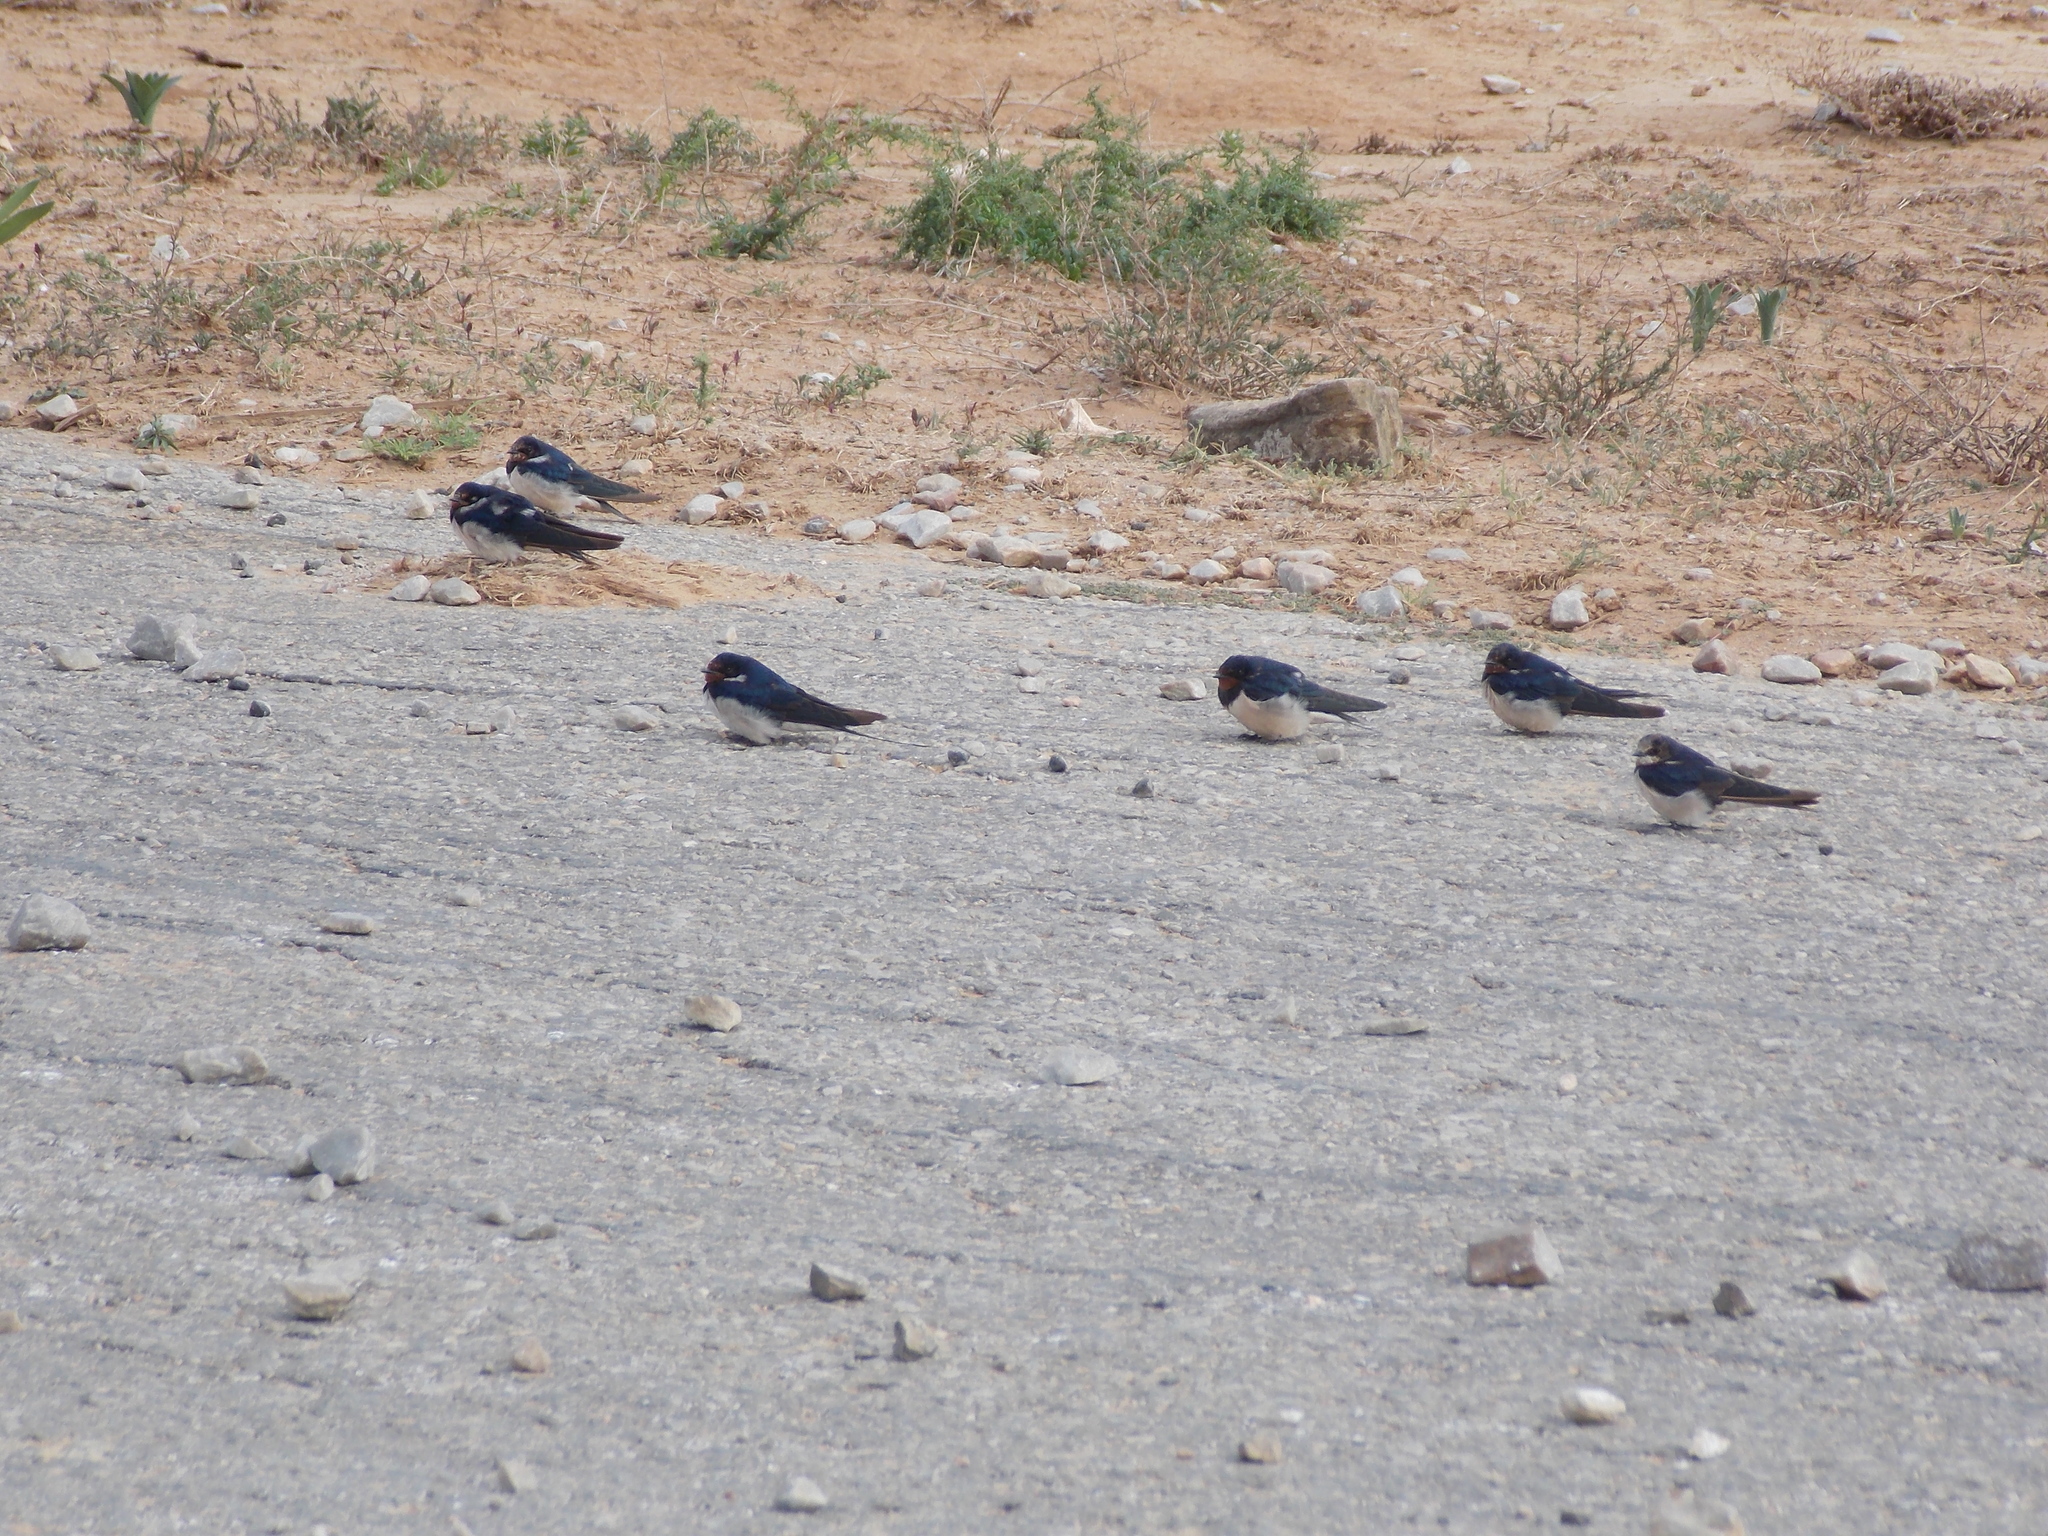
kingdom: Animalia
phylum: Chordata
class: Aves
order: Passeriformes
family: Hirundinidae
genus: Hirundo
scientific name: Hirundo rustica
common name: Barn swallow
